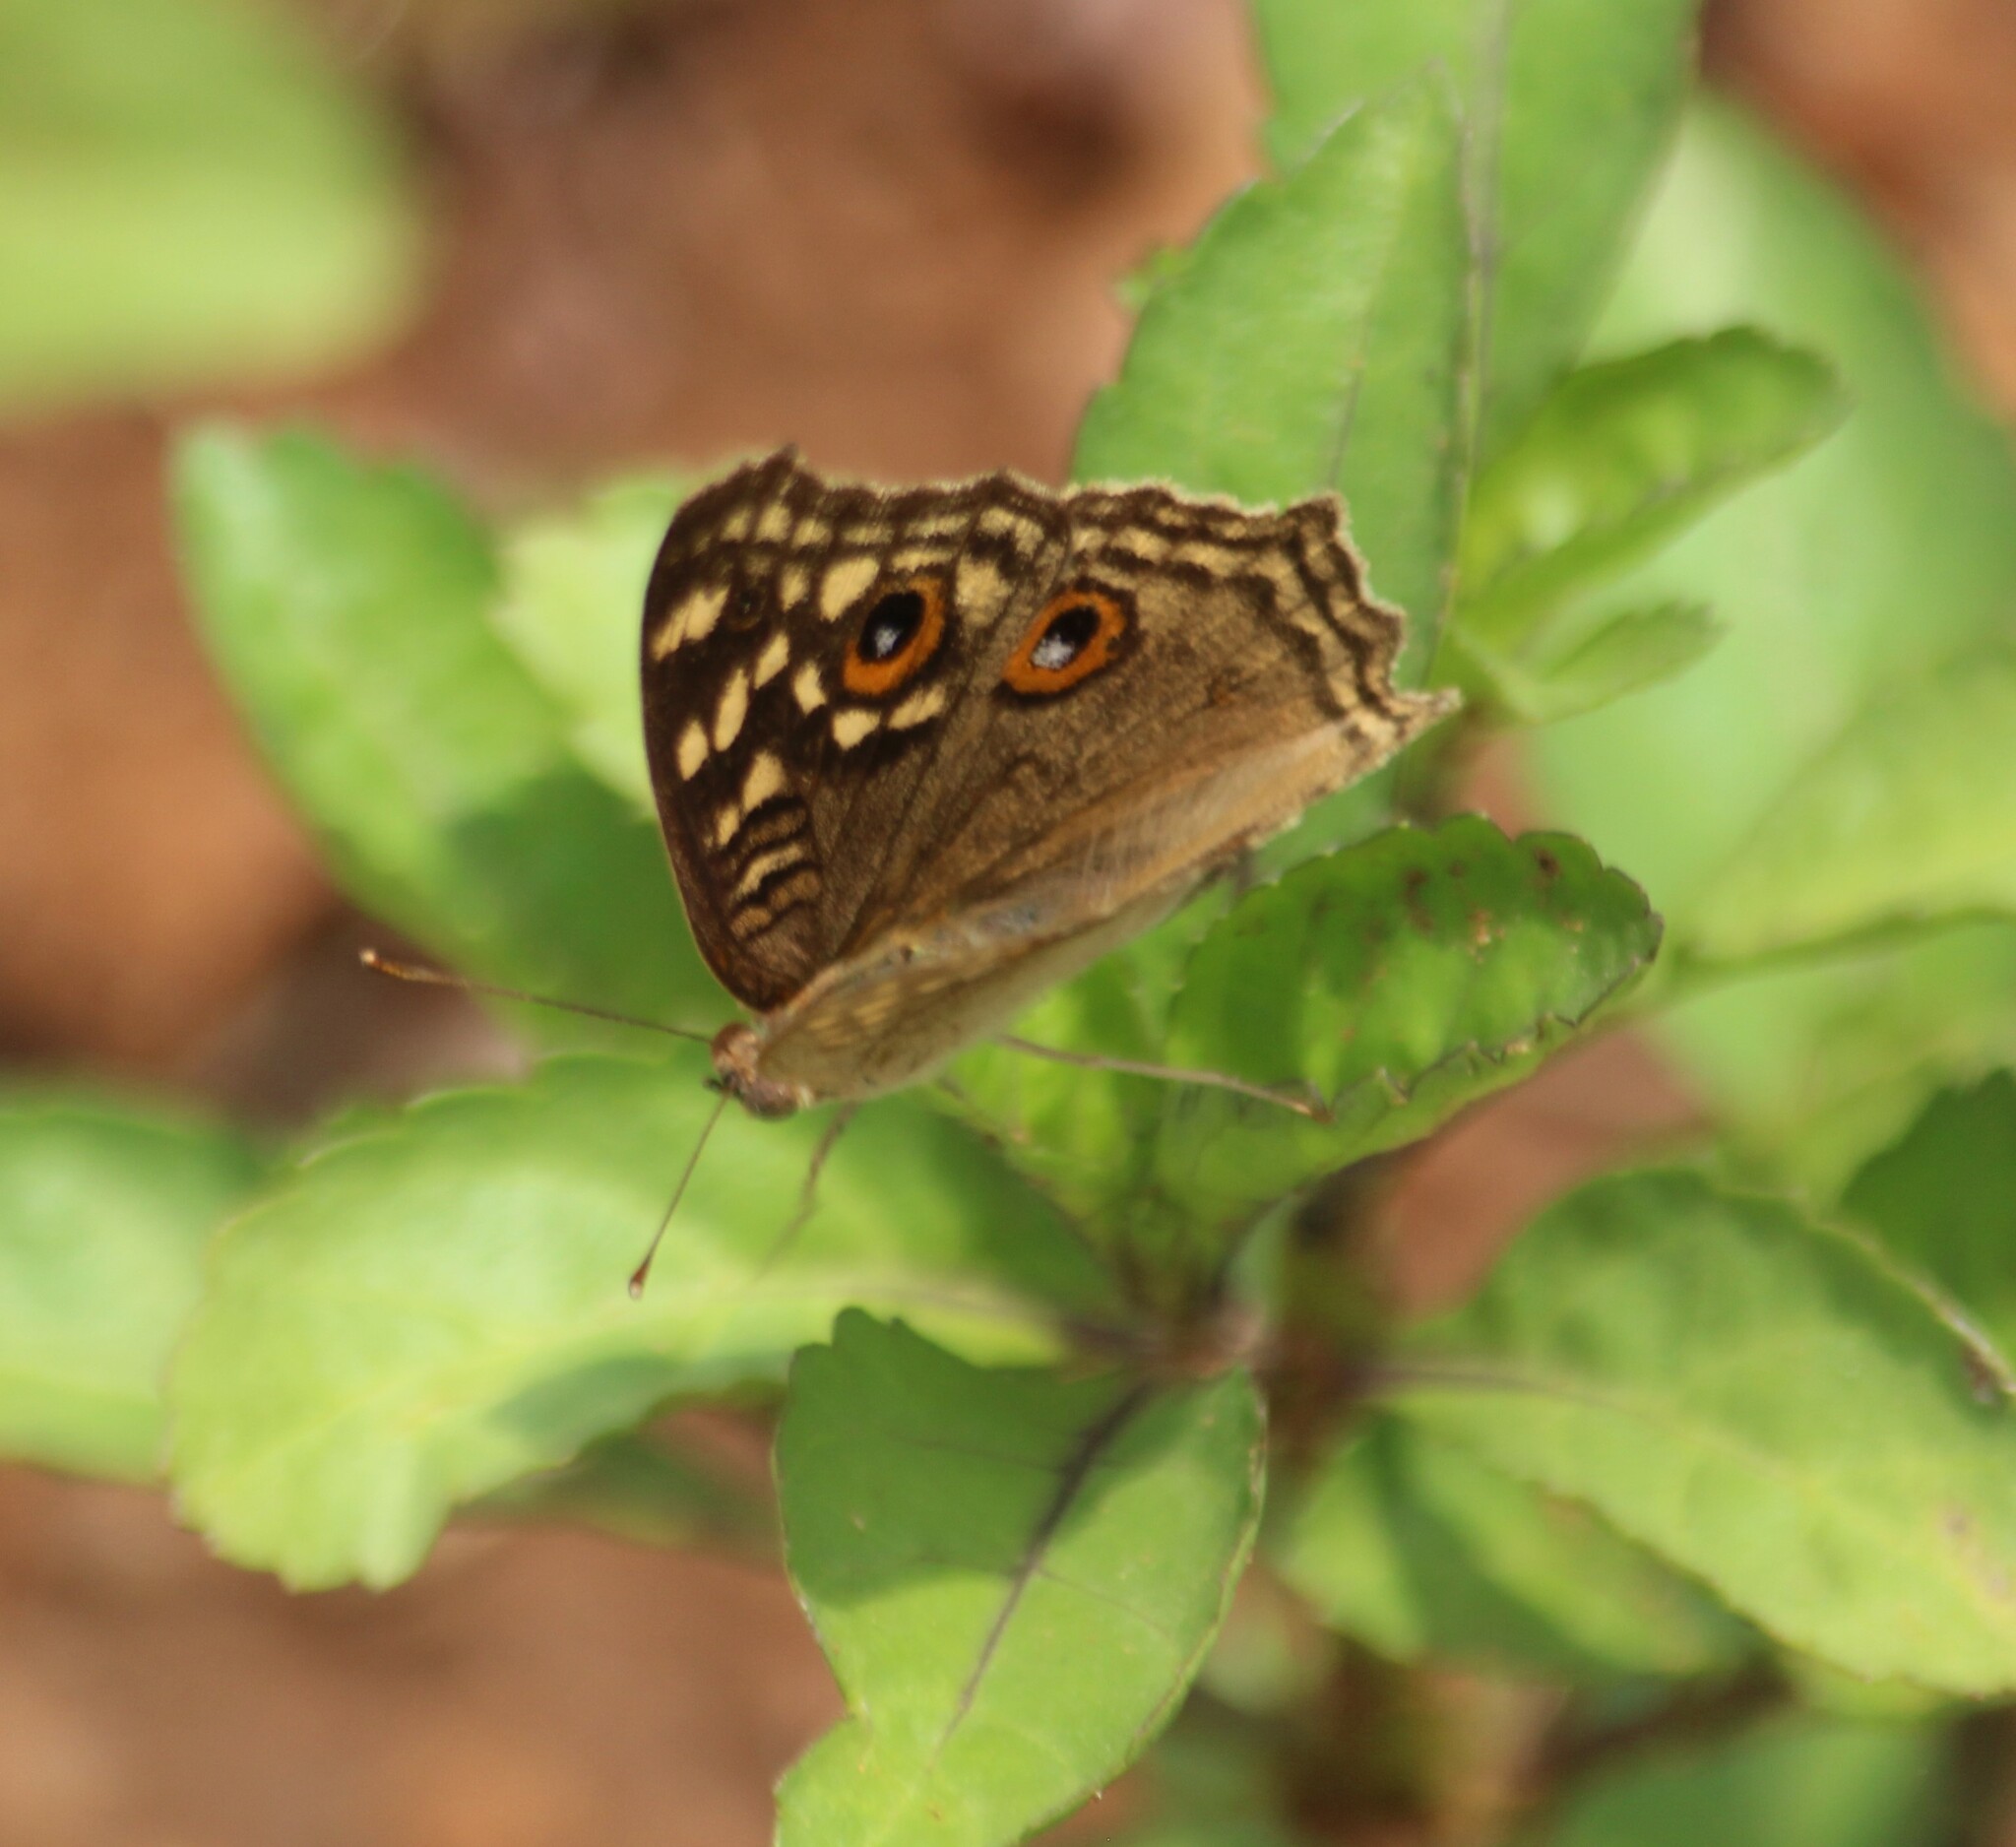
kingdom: Animalia
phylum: Arthropoda
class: Insecta
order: Lepidoptera
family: Nymphalidae
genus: Junonia
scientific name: Junonia lemonias
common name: Lemon pansy
